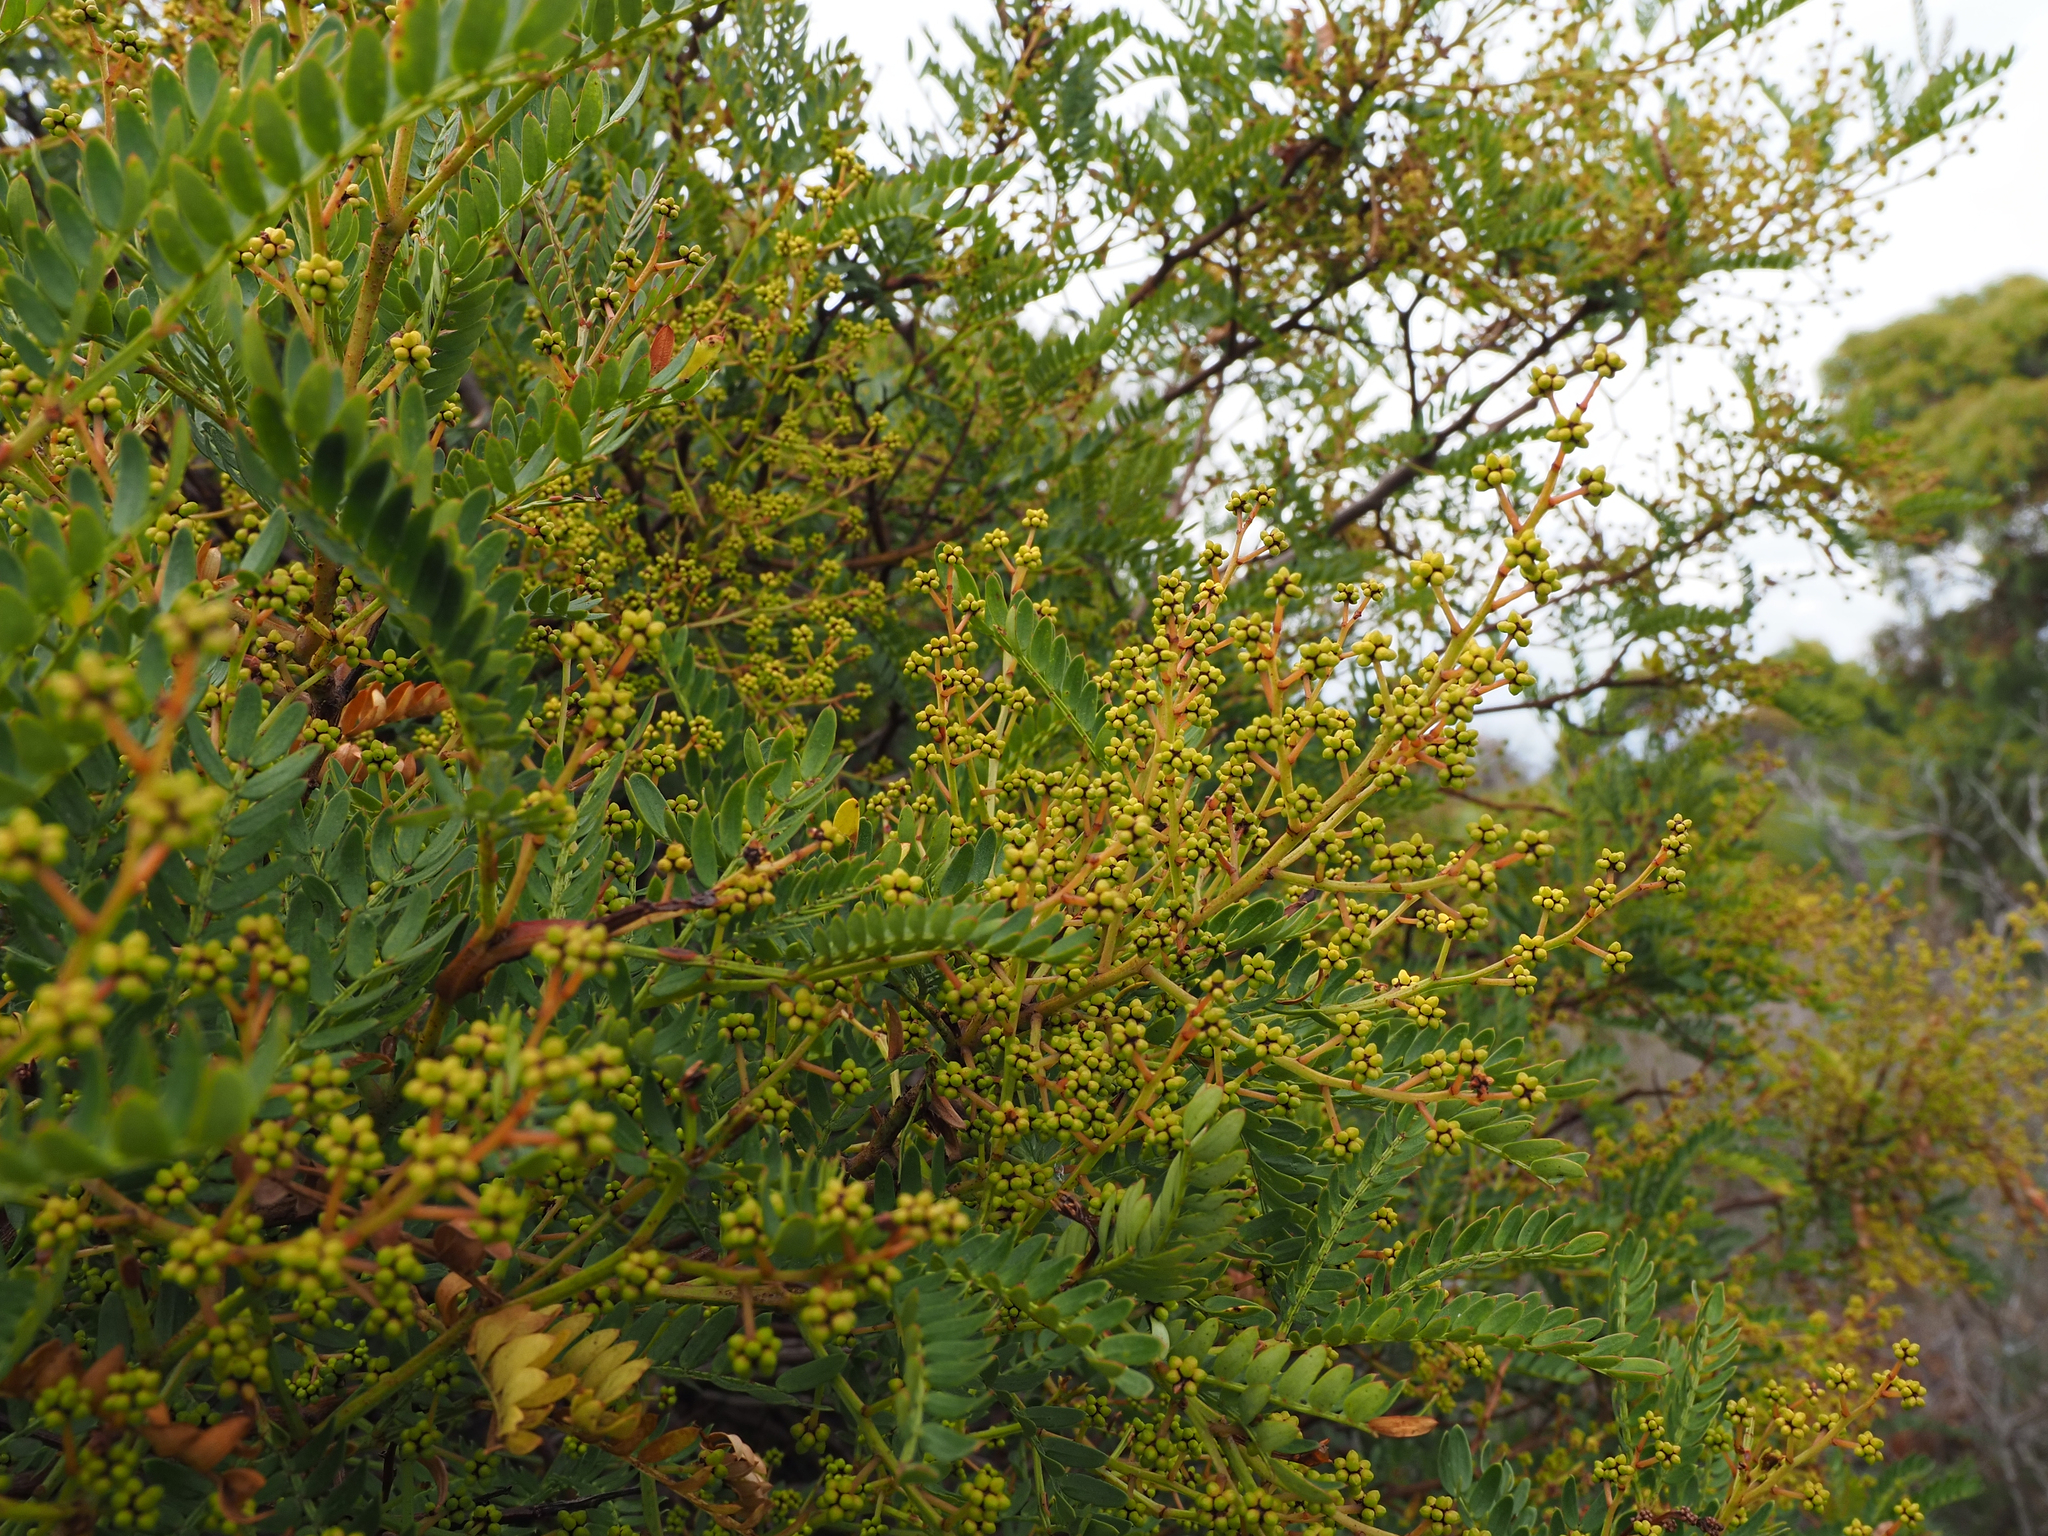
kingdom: Plantae
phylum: Tracheophyta
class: Magnoliopsida
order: Fabales
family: Fabaceae
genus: Acacia
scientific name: Acacia terminalis
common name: Cedar wattle
